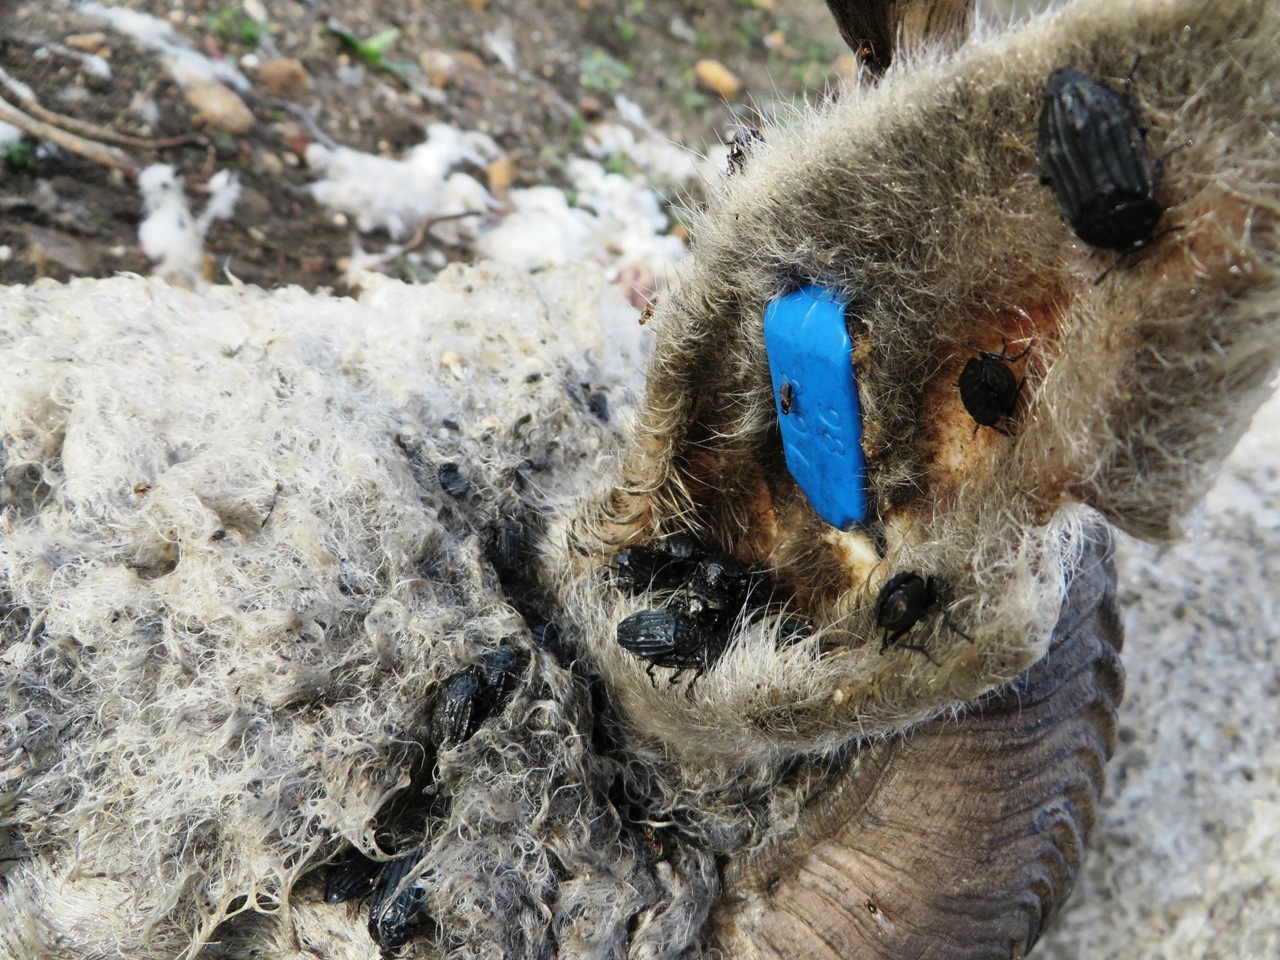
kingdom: Animalia
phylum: Arthropoda
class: Insecta
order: Coleoptera
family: Staphylinidae
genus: Thanatophilus
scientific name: Thanatophilus micans
